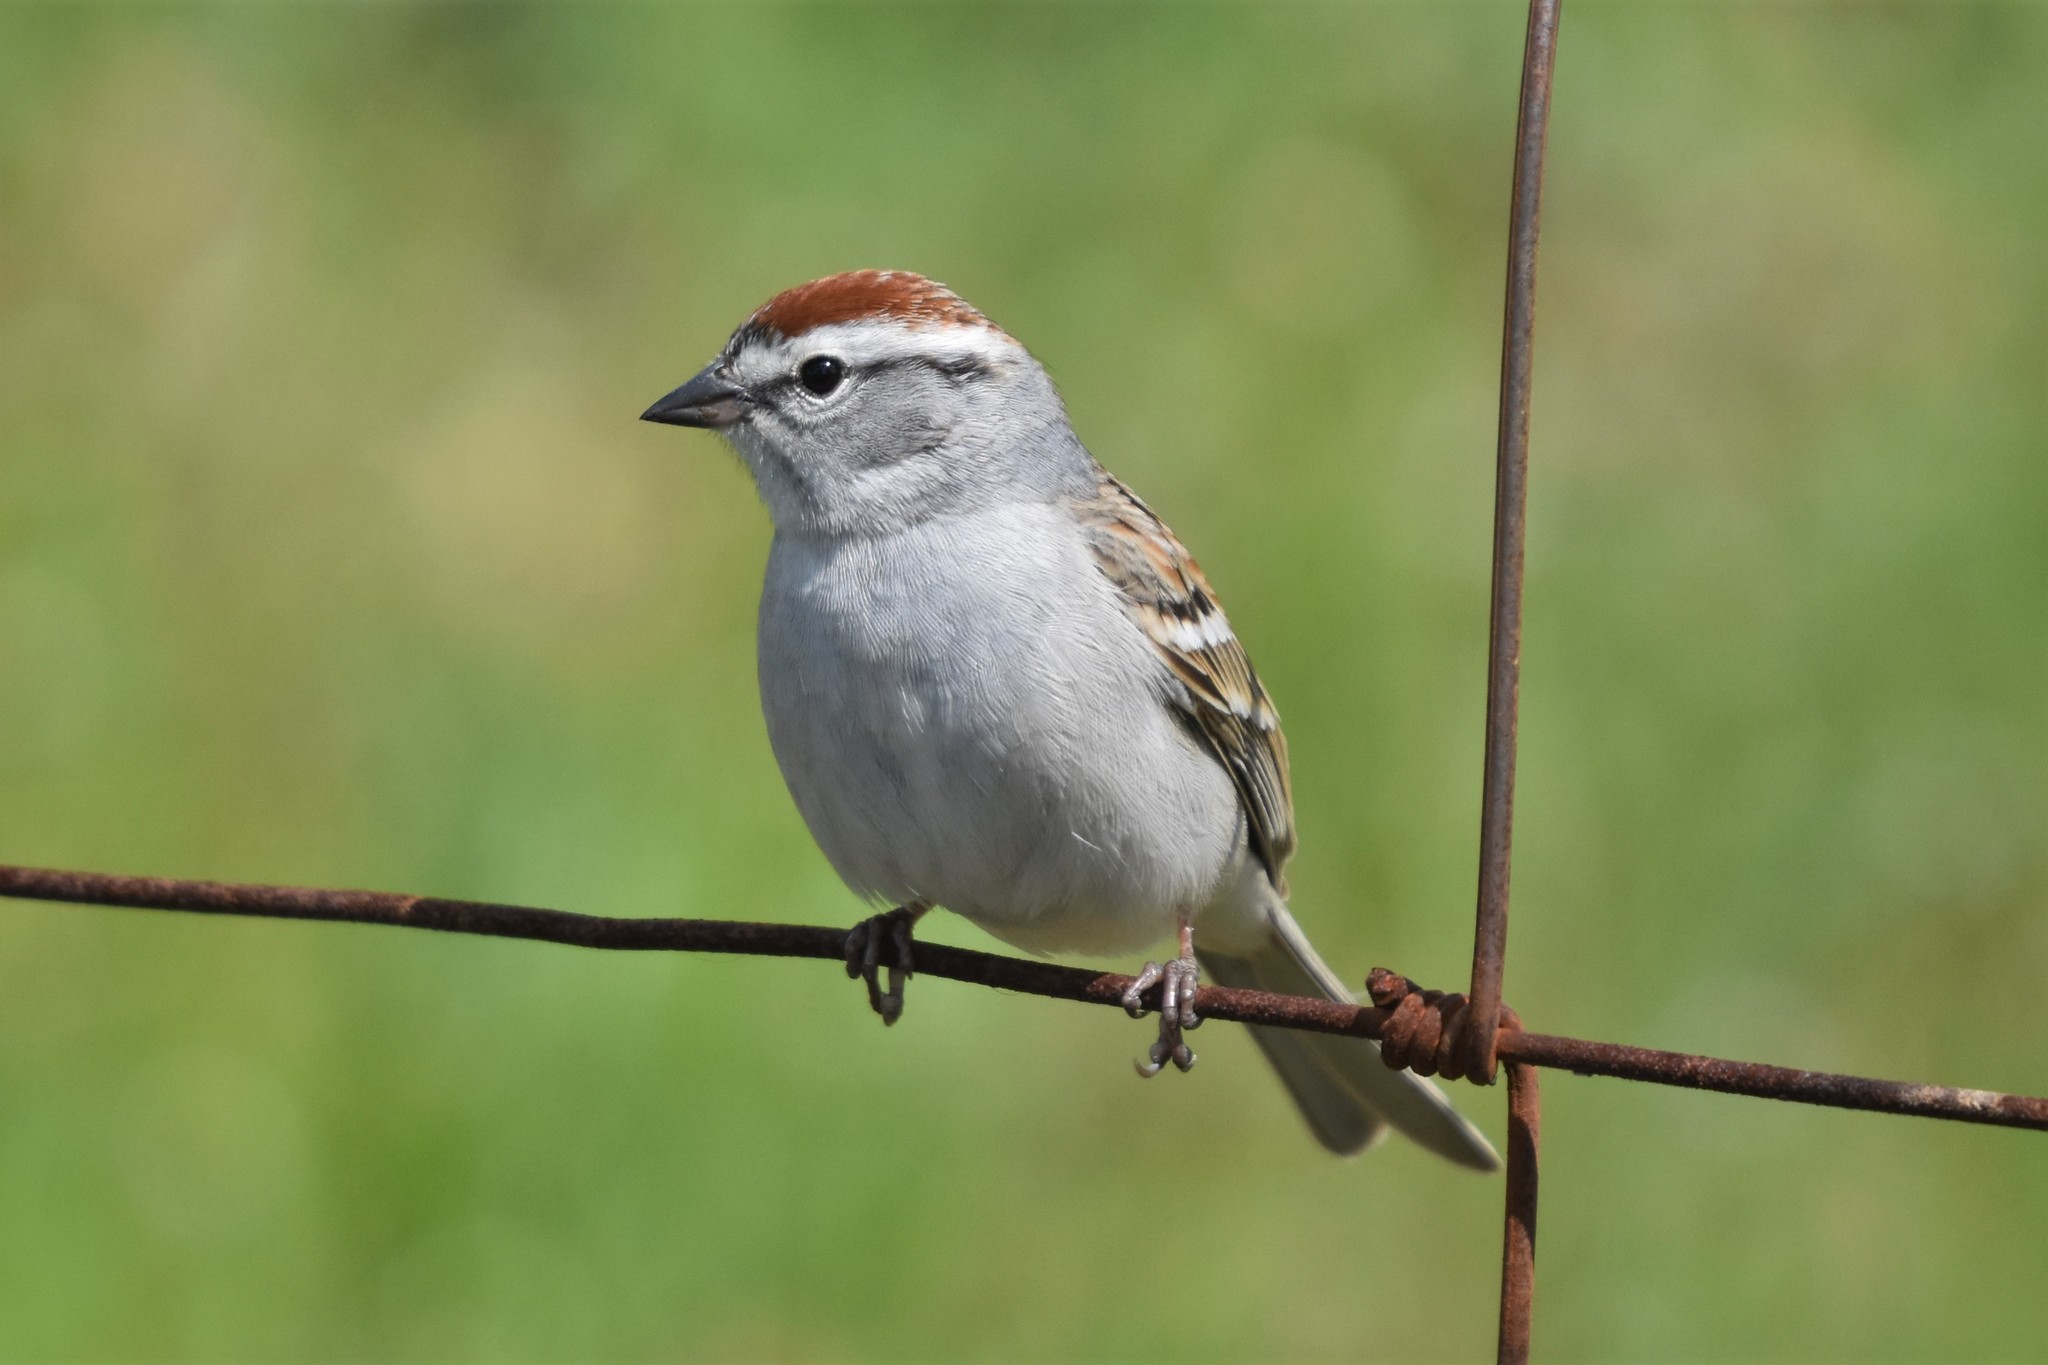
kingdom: Animalia
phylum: Chordata
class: Aves
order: Passeriformes
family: Passerellidae
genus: Spizella
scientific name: Spizella passerina
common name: Chipping sparrow
